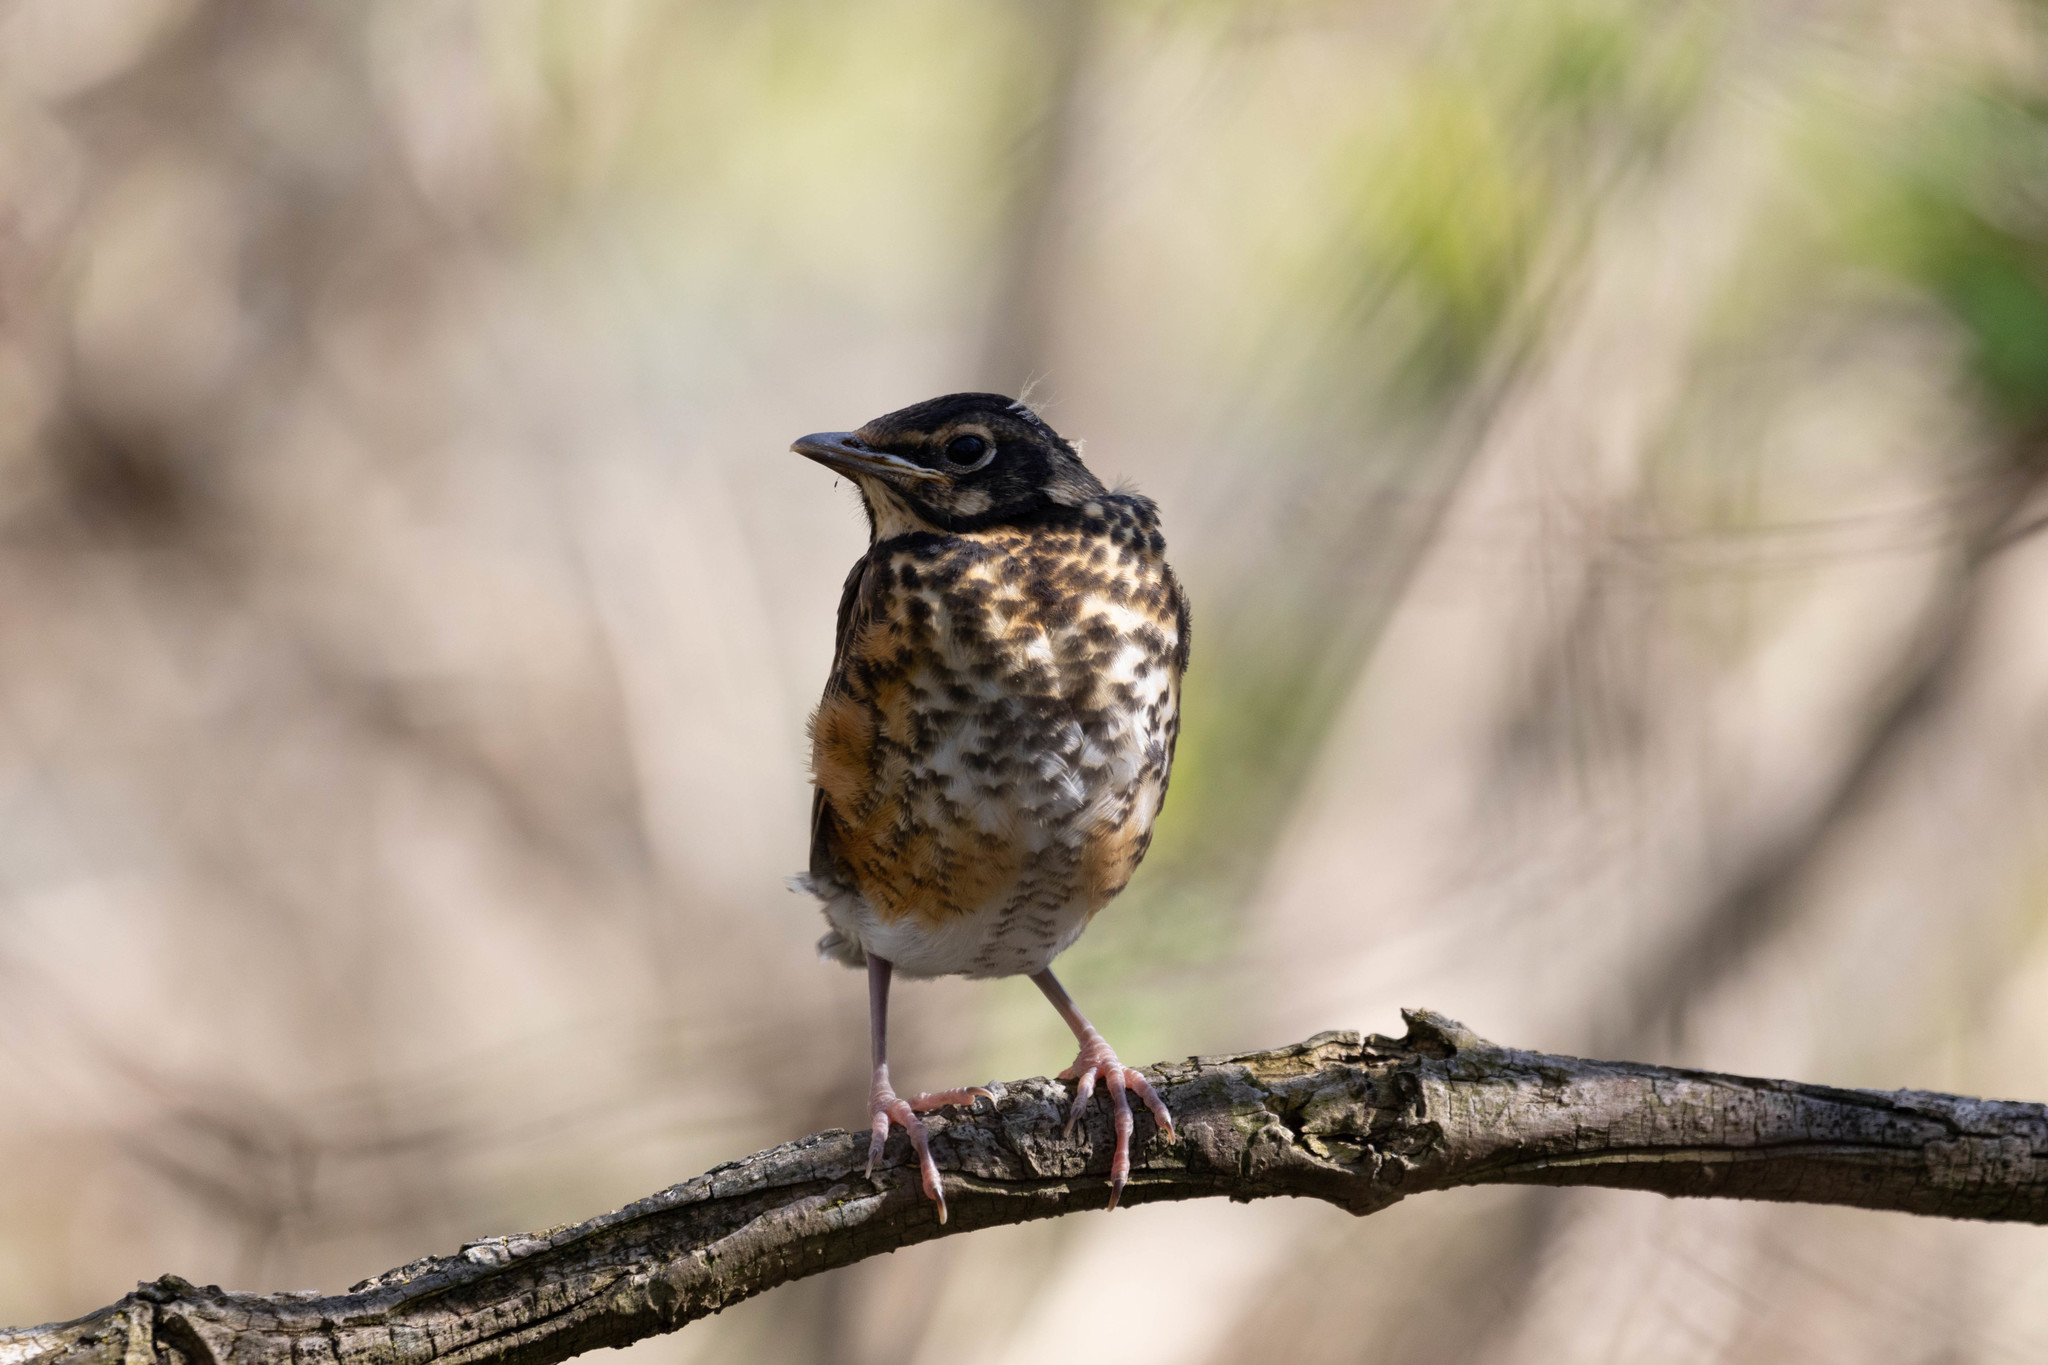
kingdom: Animalia
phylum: Chordata
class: Aves
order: Passeriformes
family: Turdidae
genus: Turdus
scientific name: Turdus migratorius
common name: American robin
